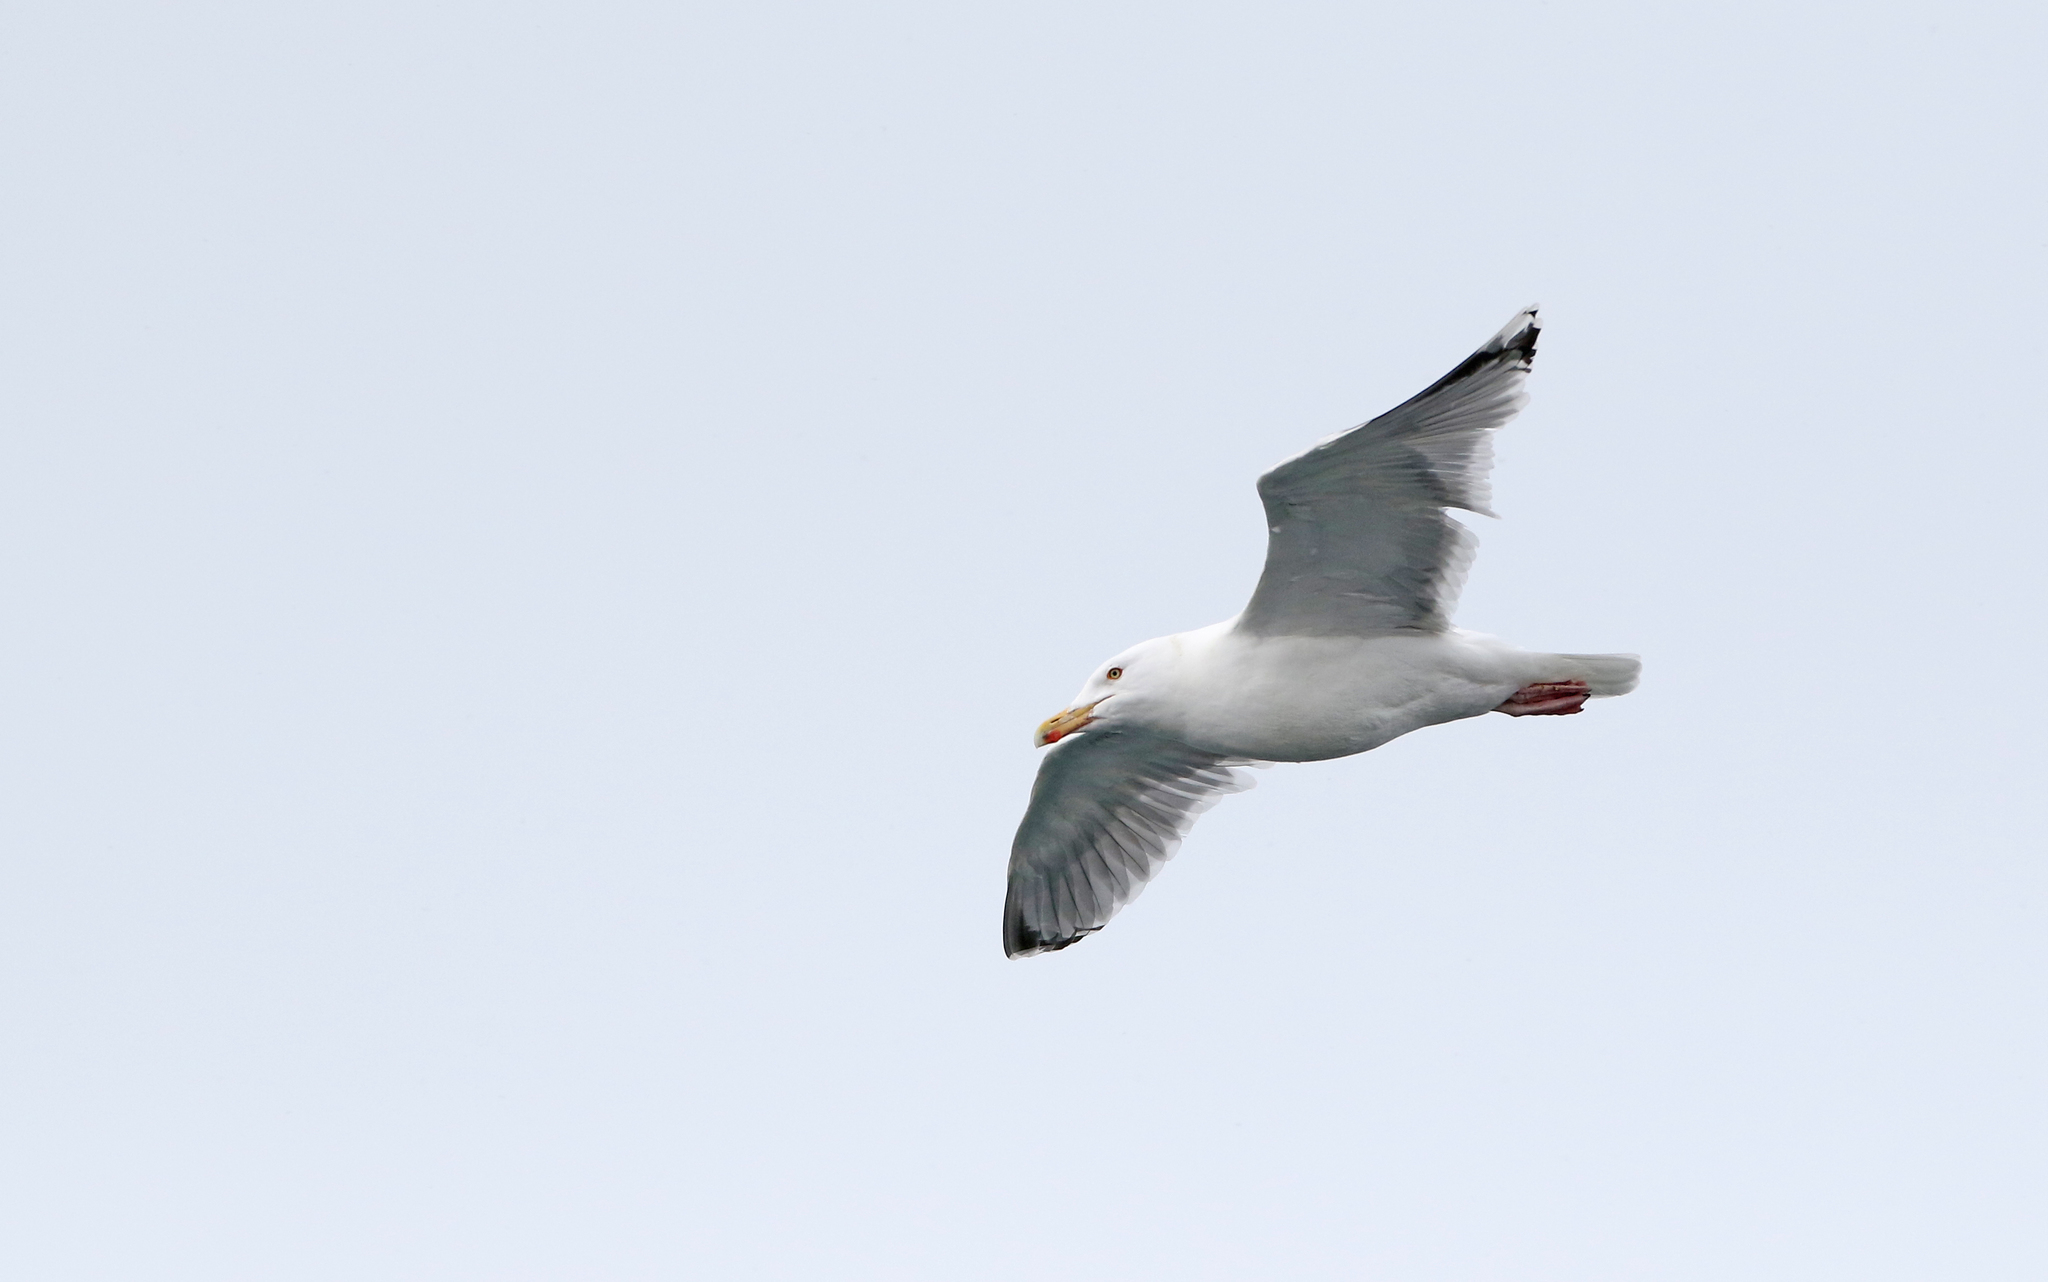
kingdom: Animalia
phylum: Chordata
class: Aves
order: Charadriiformes
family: Laridae
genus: Larus
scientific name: Larus argentatus
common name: Herring gull
